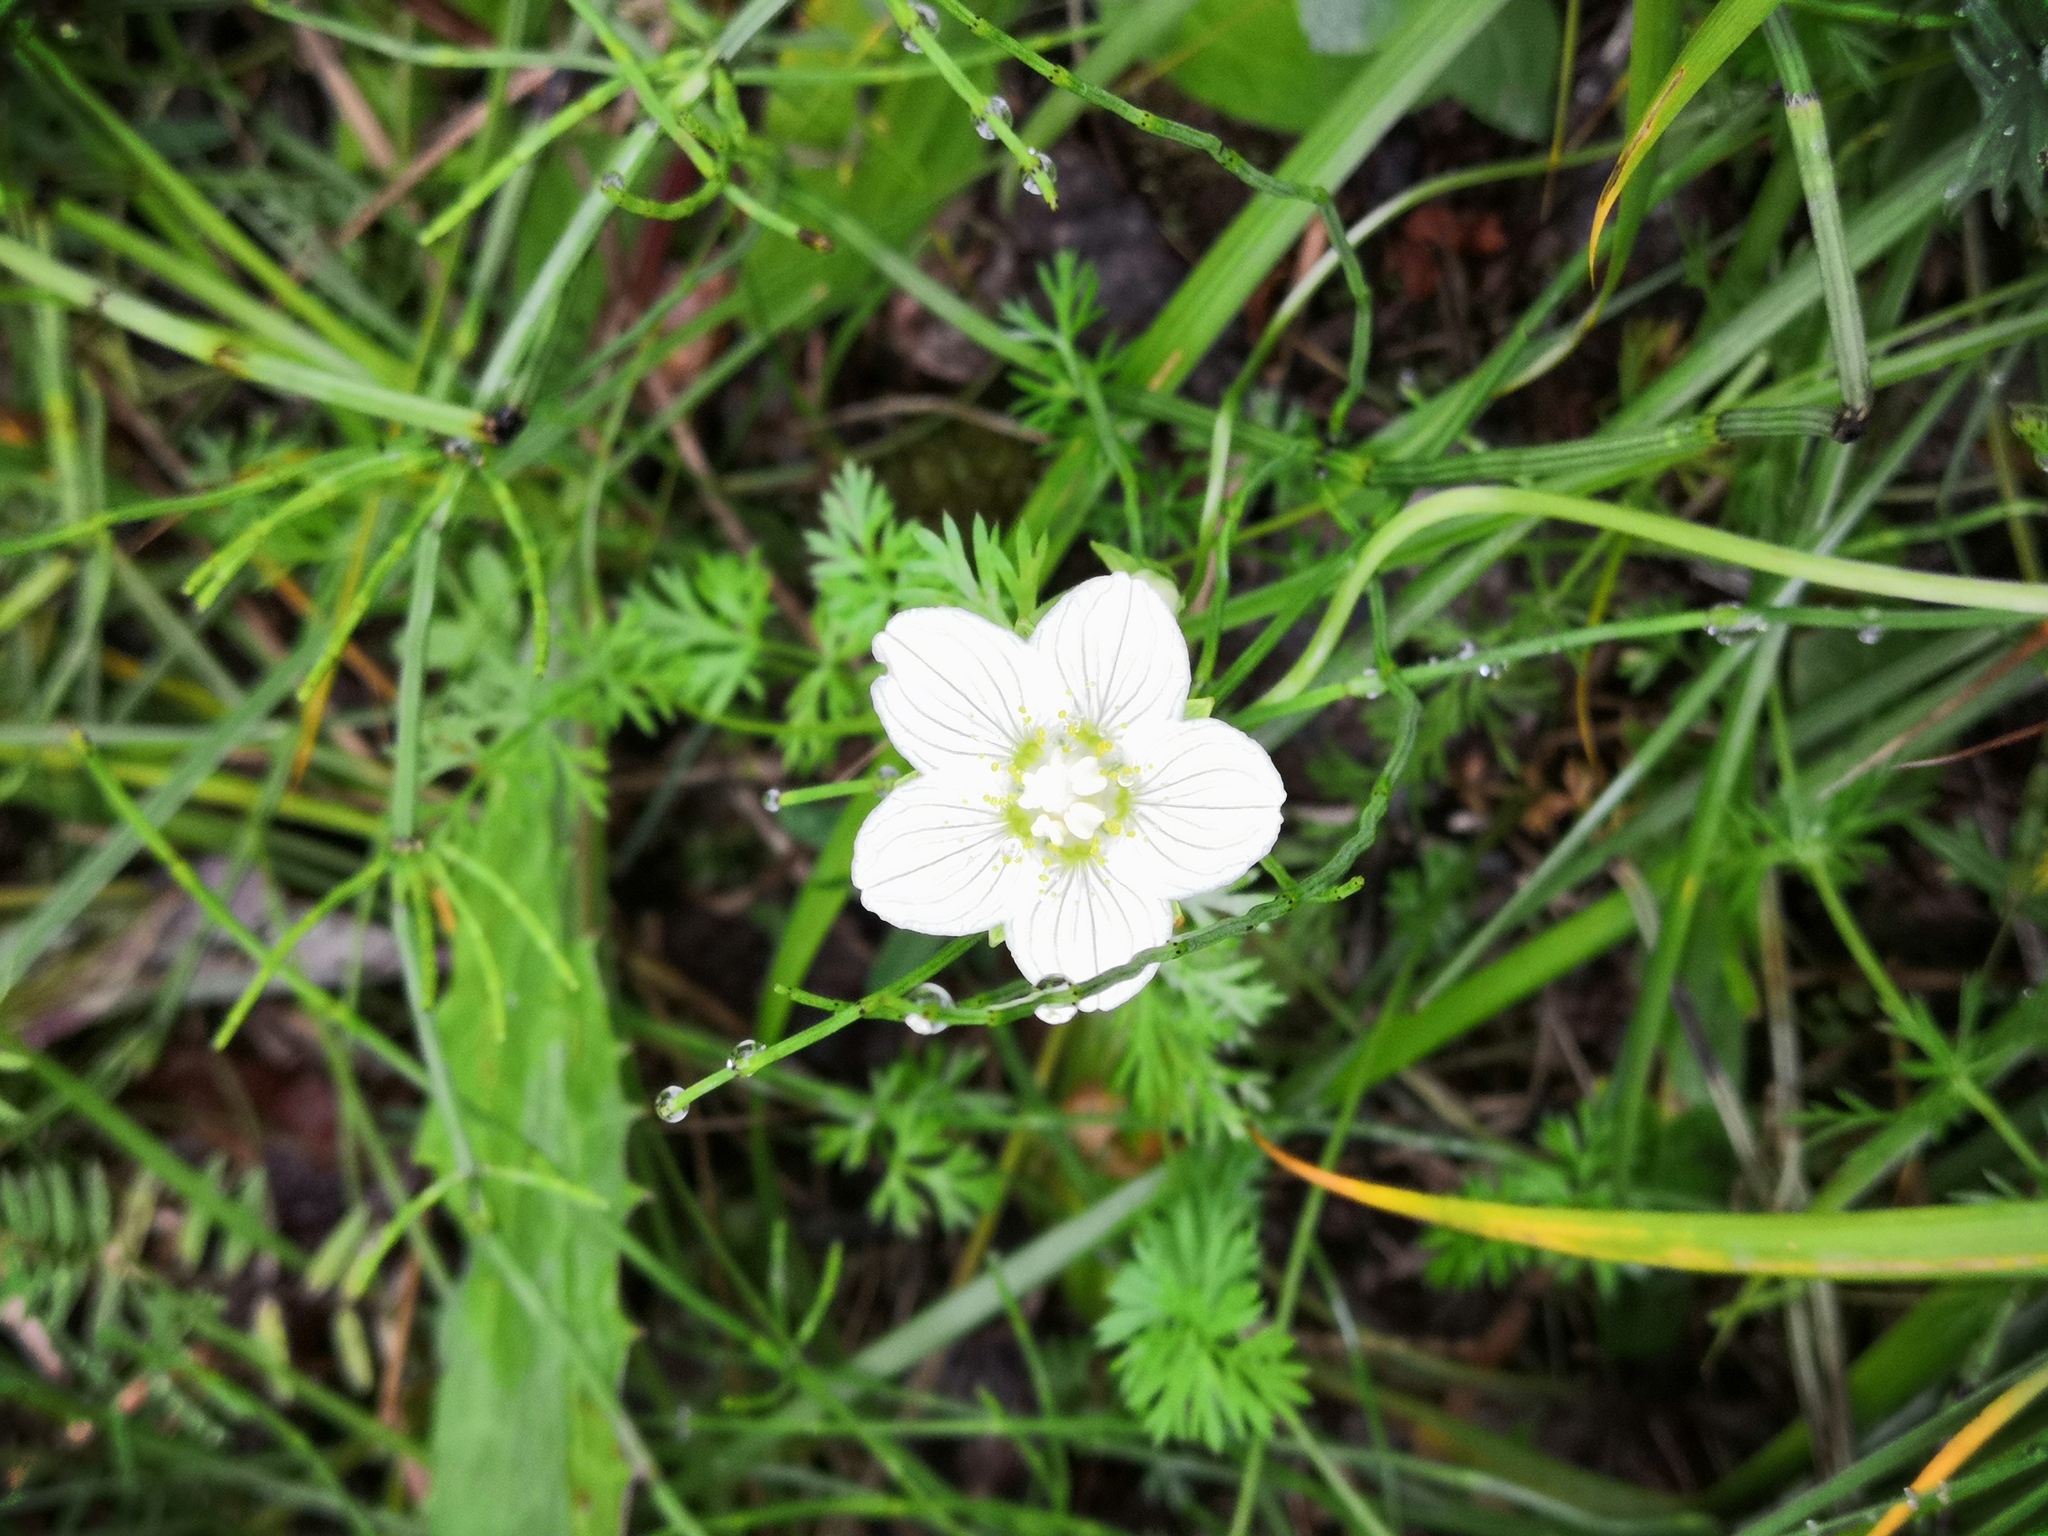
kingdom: Plantae
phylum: Tracheophyta
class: Magnoliopsida
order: Celastrales
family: Parnassiaceae
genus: Parnassia
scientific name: Parnassia palustris
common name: Grass-of-parnassus
